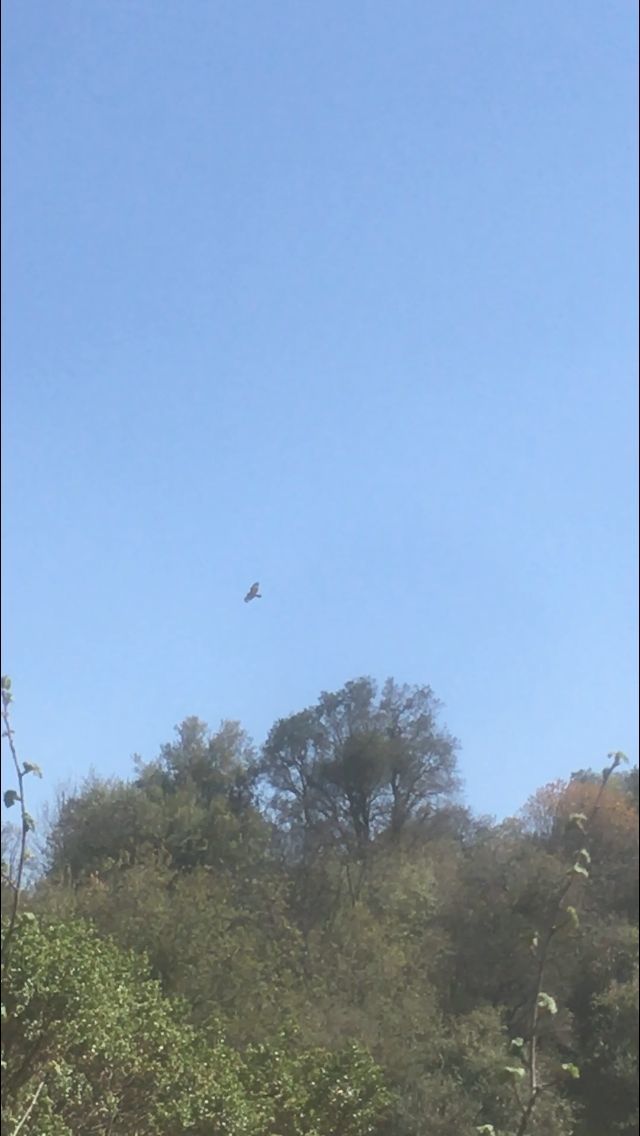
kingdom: Animalia
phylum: Chordata
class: Aves
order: Accipitriformes
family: Accipitridae
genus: Buteo
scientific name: Buteo jamaicensis
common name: Red-tailed hawk
